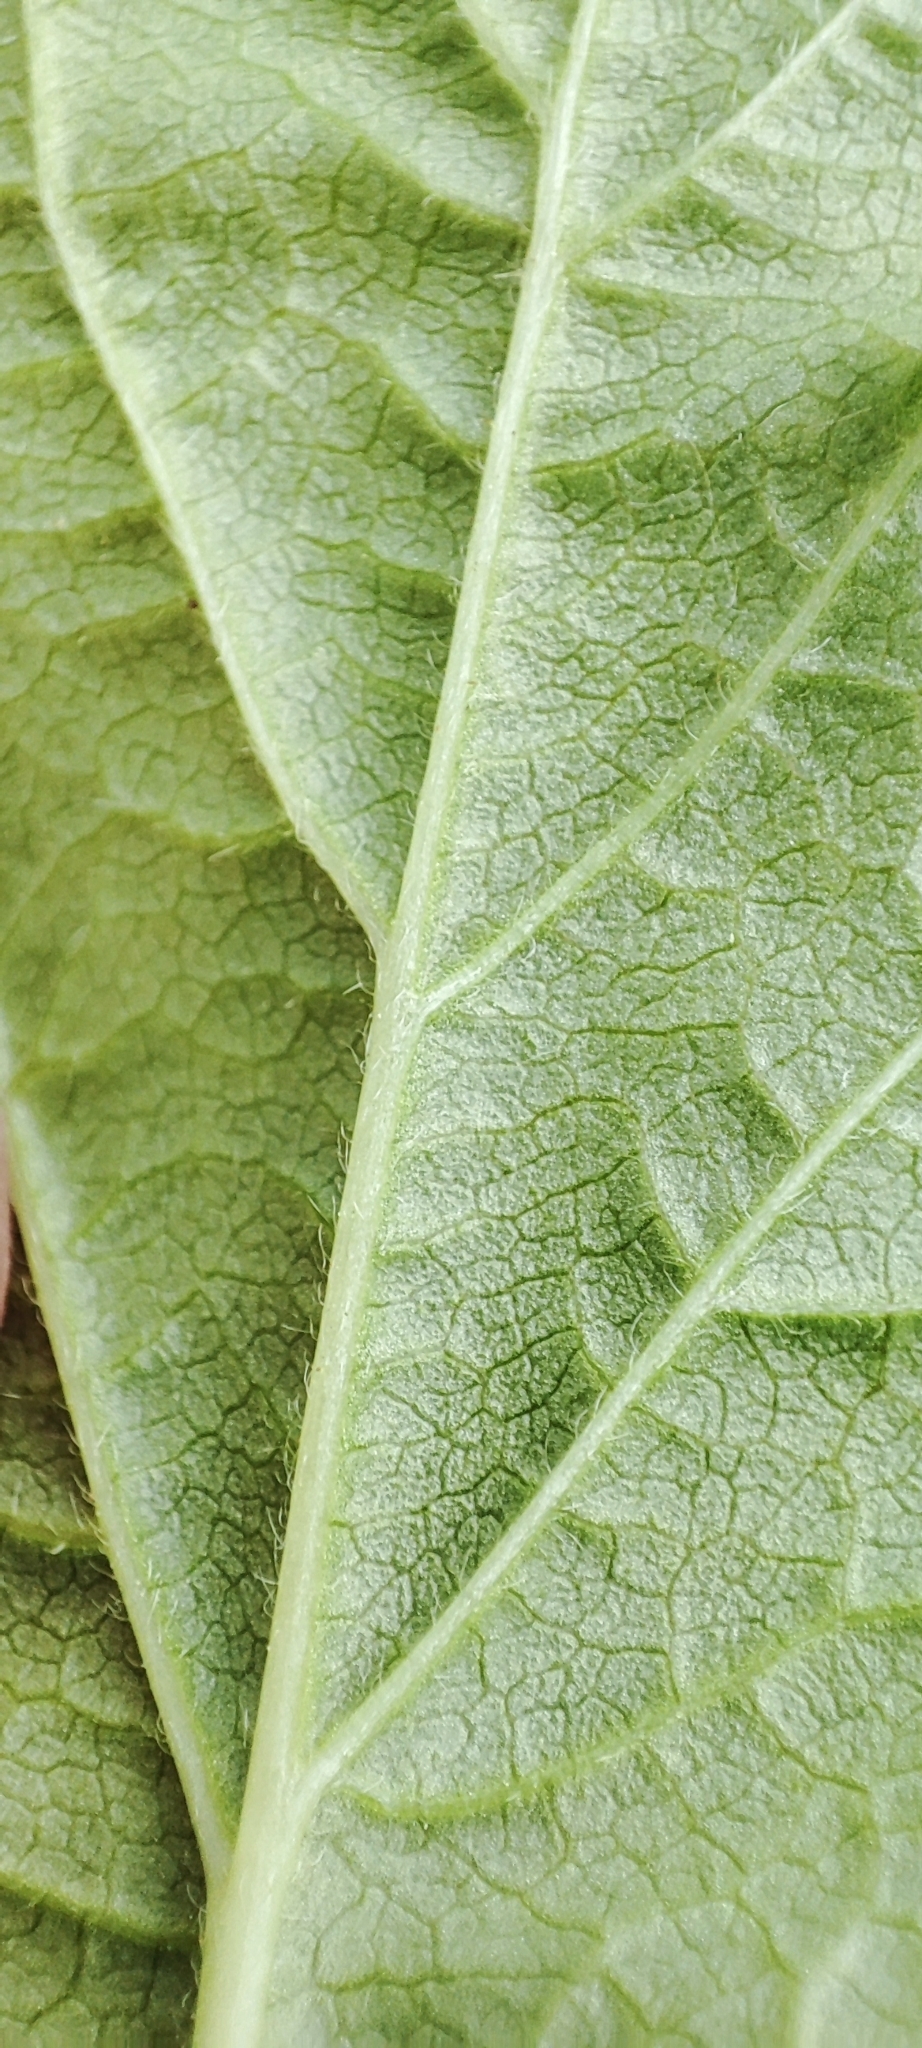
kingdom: Plantae
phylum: Tracheophyta
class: Magnoliopsida
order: Rosales
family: Rosaceae
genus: Rubus
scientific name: Rubus saxatilis
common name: Stone bramble
